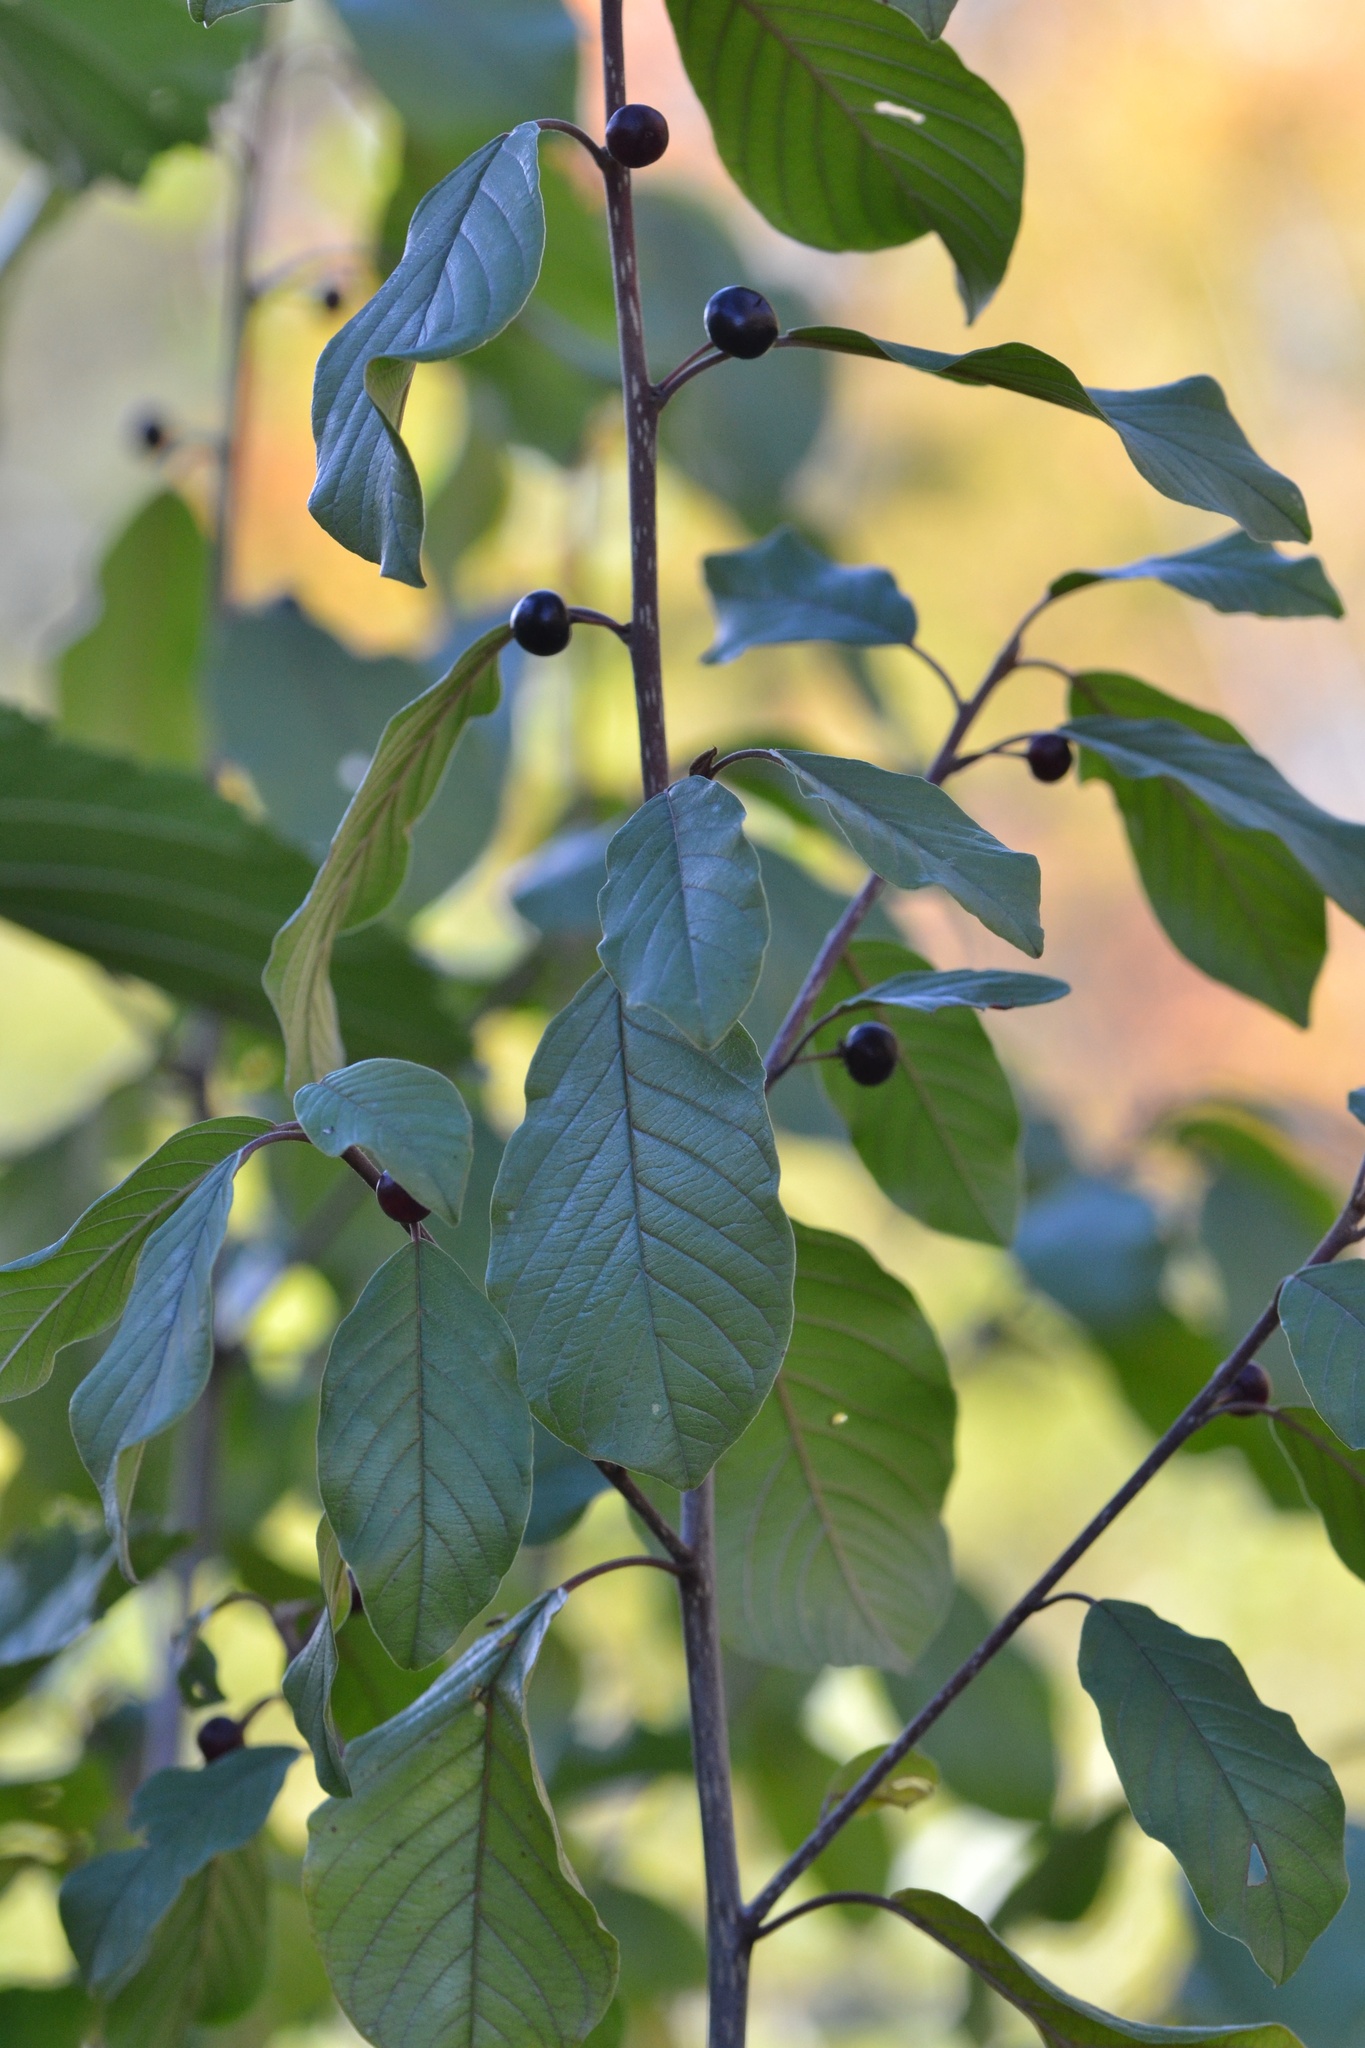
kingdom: Plantae
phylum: Tracheophyta
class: Magnoliopsida
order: Rosales
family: Rhamnaceae
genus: Frangula
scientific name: Frangula alnus
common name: Alder buckthorn
